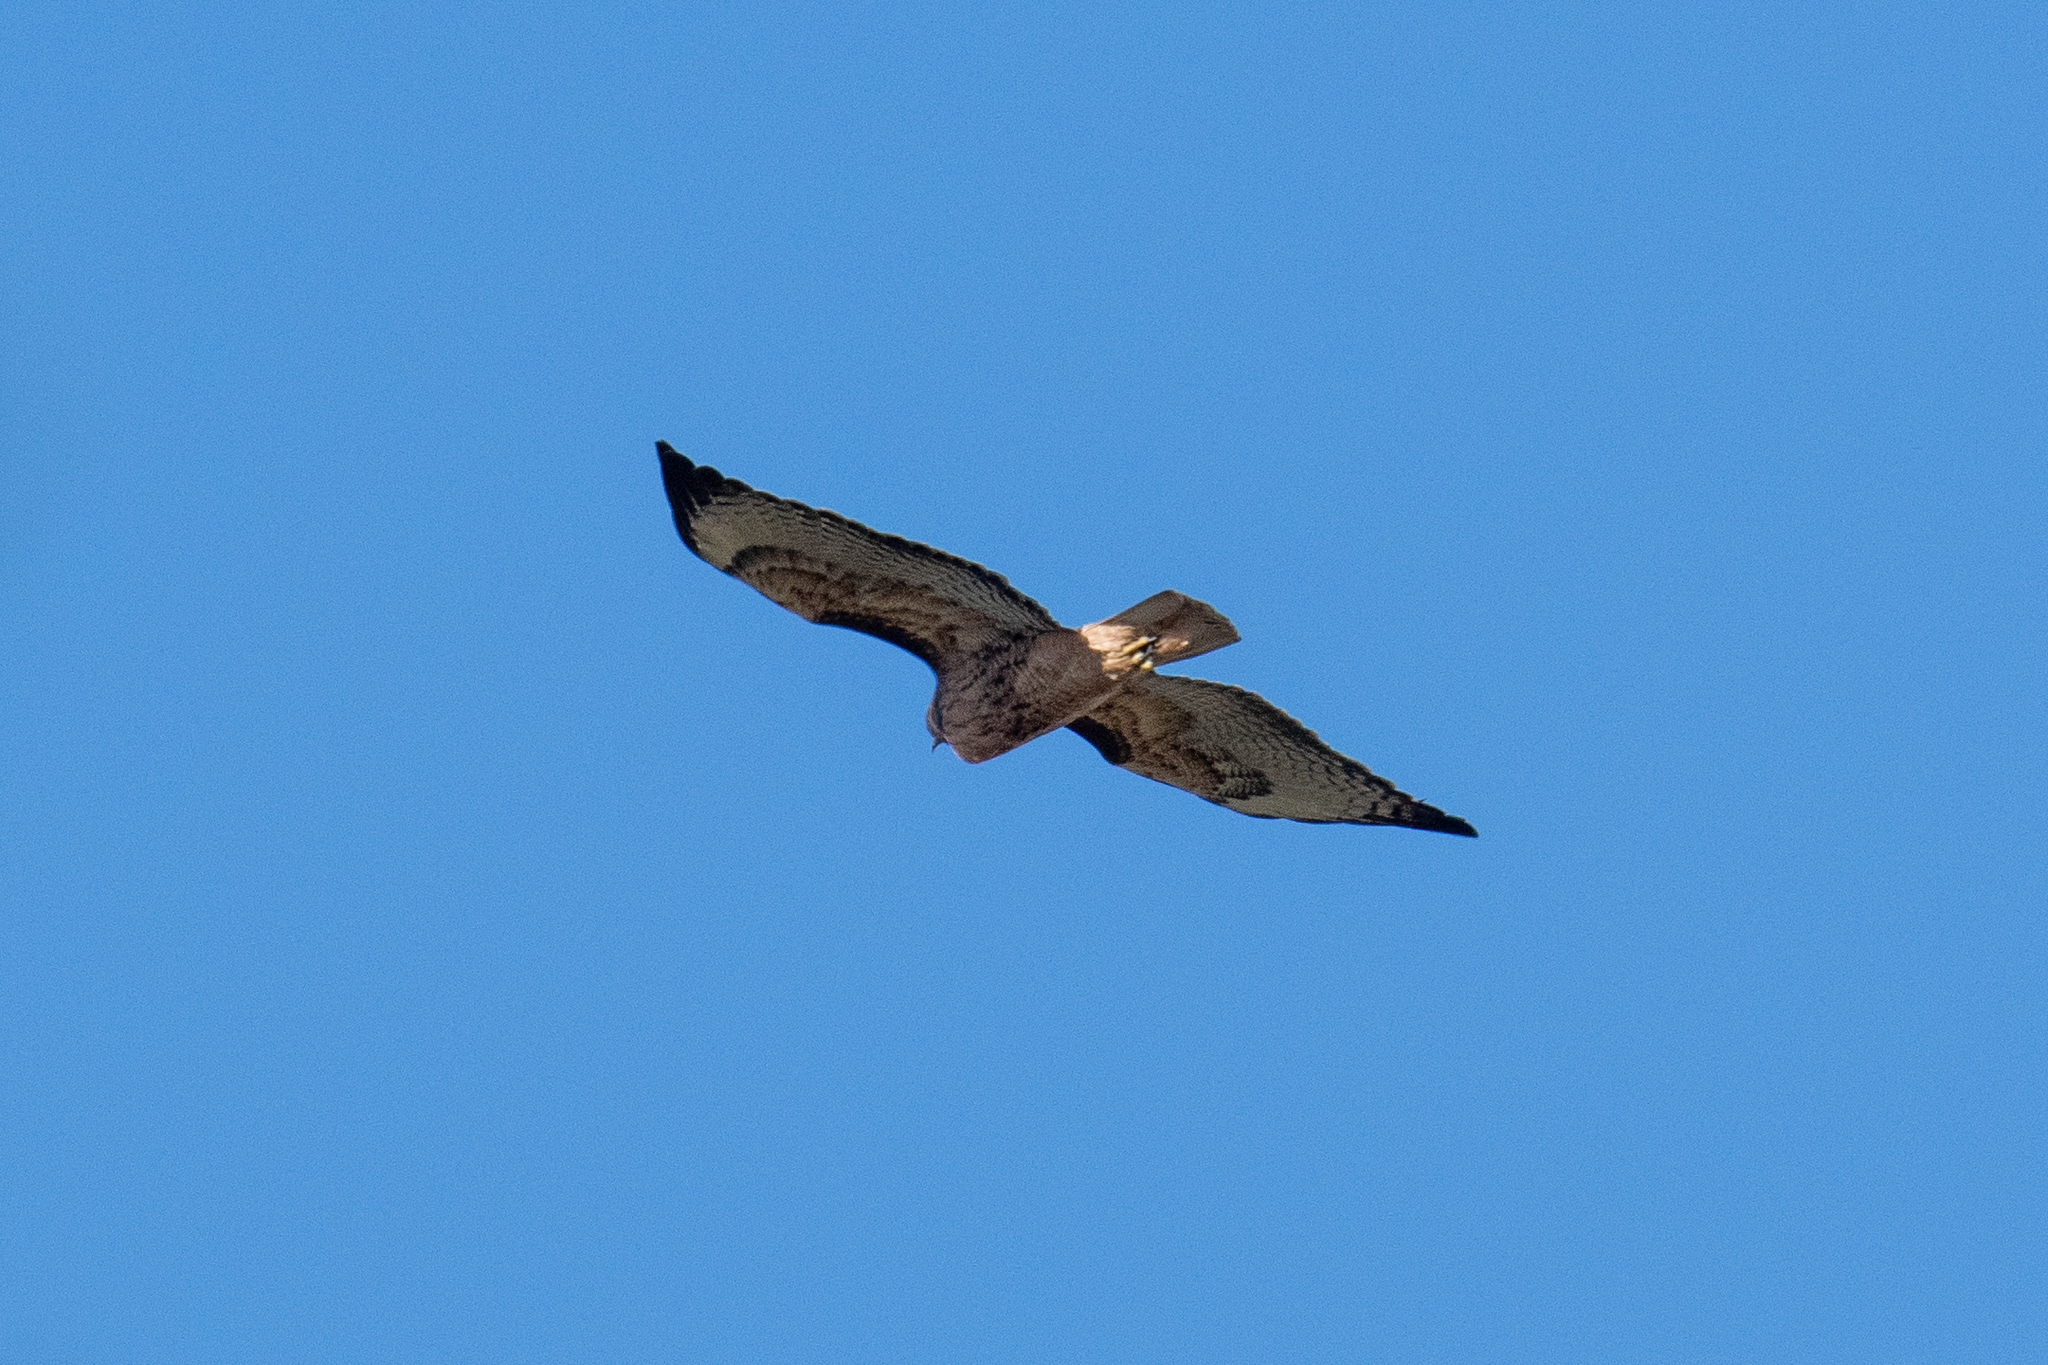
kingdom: Animalia
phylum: Chordata
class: Aves
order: Accipitriformes
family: Accipitridae
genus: Buteo
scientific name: Buteo jamaicensis
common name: Red-tailed hawk
